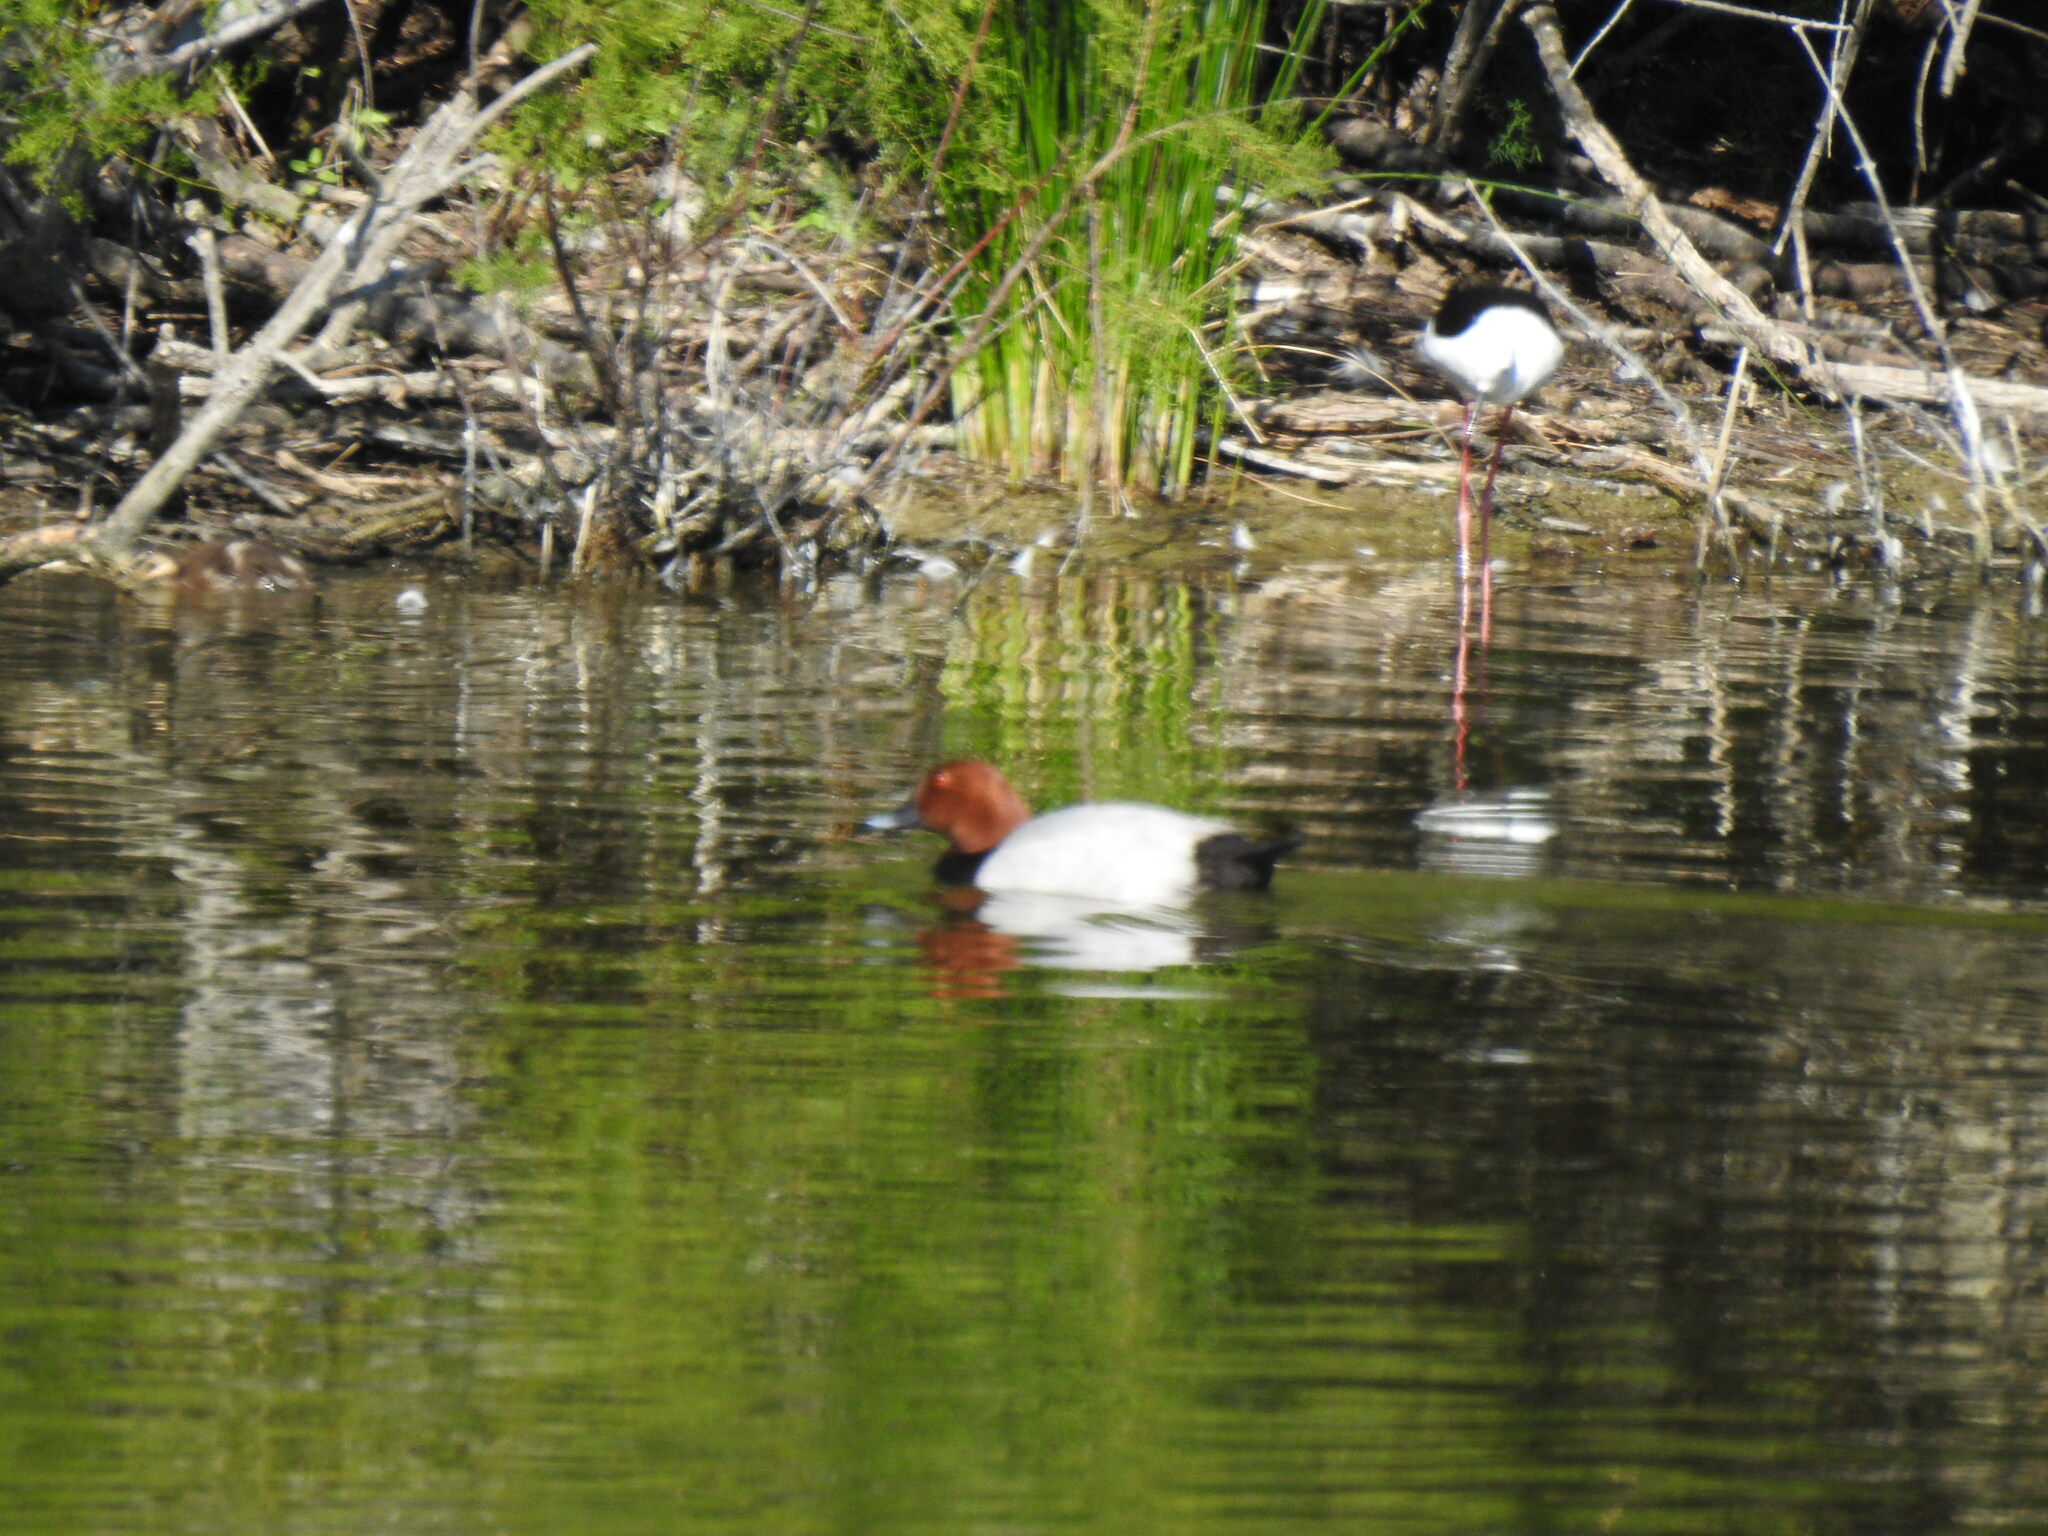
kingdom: Animalia
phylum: Chordata
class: Aves
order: Anseriformes
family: Anatidae
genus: Aythya
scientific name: Aythya ferina
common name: Common pochard
